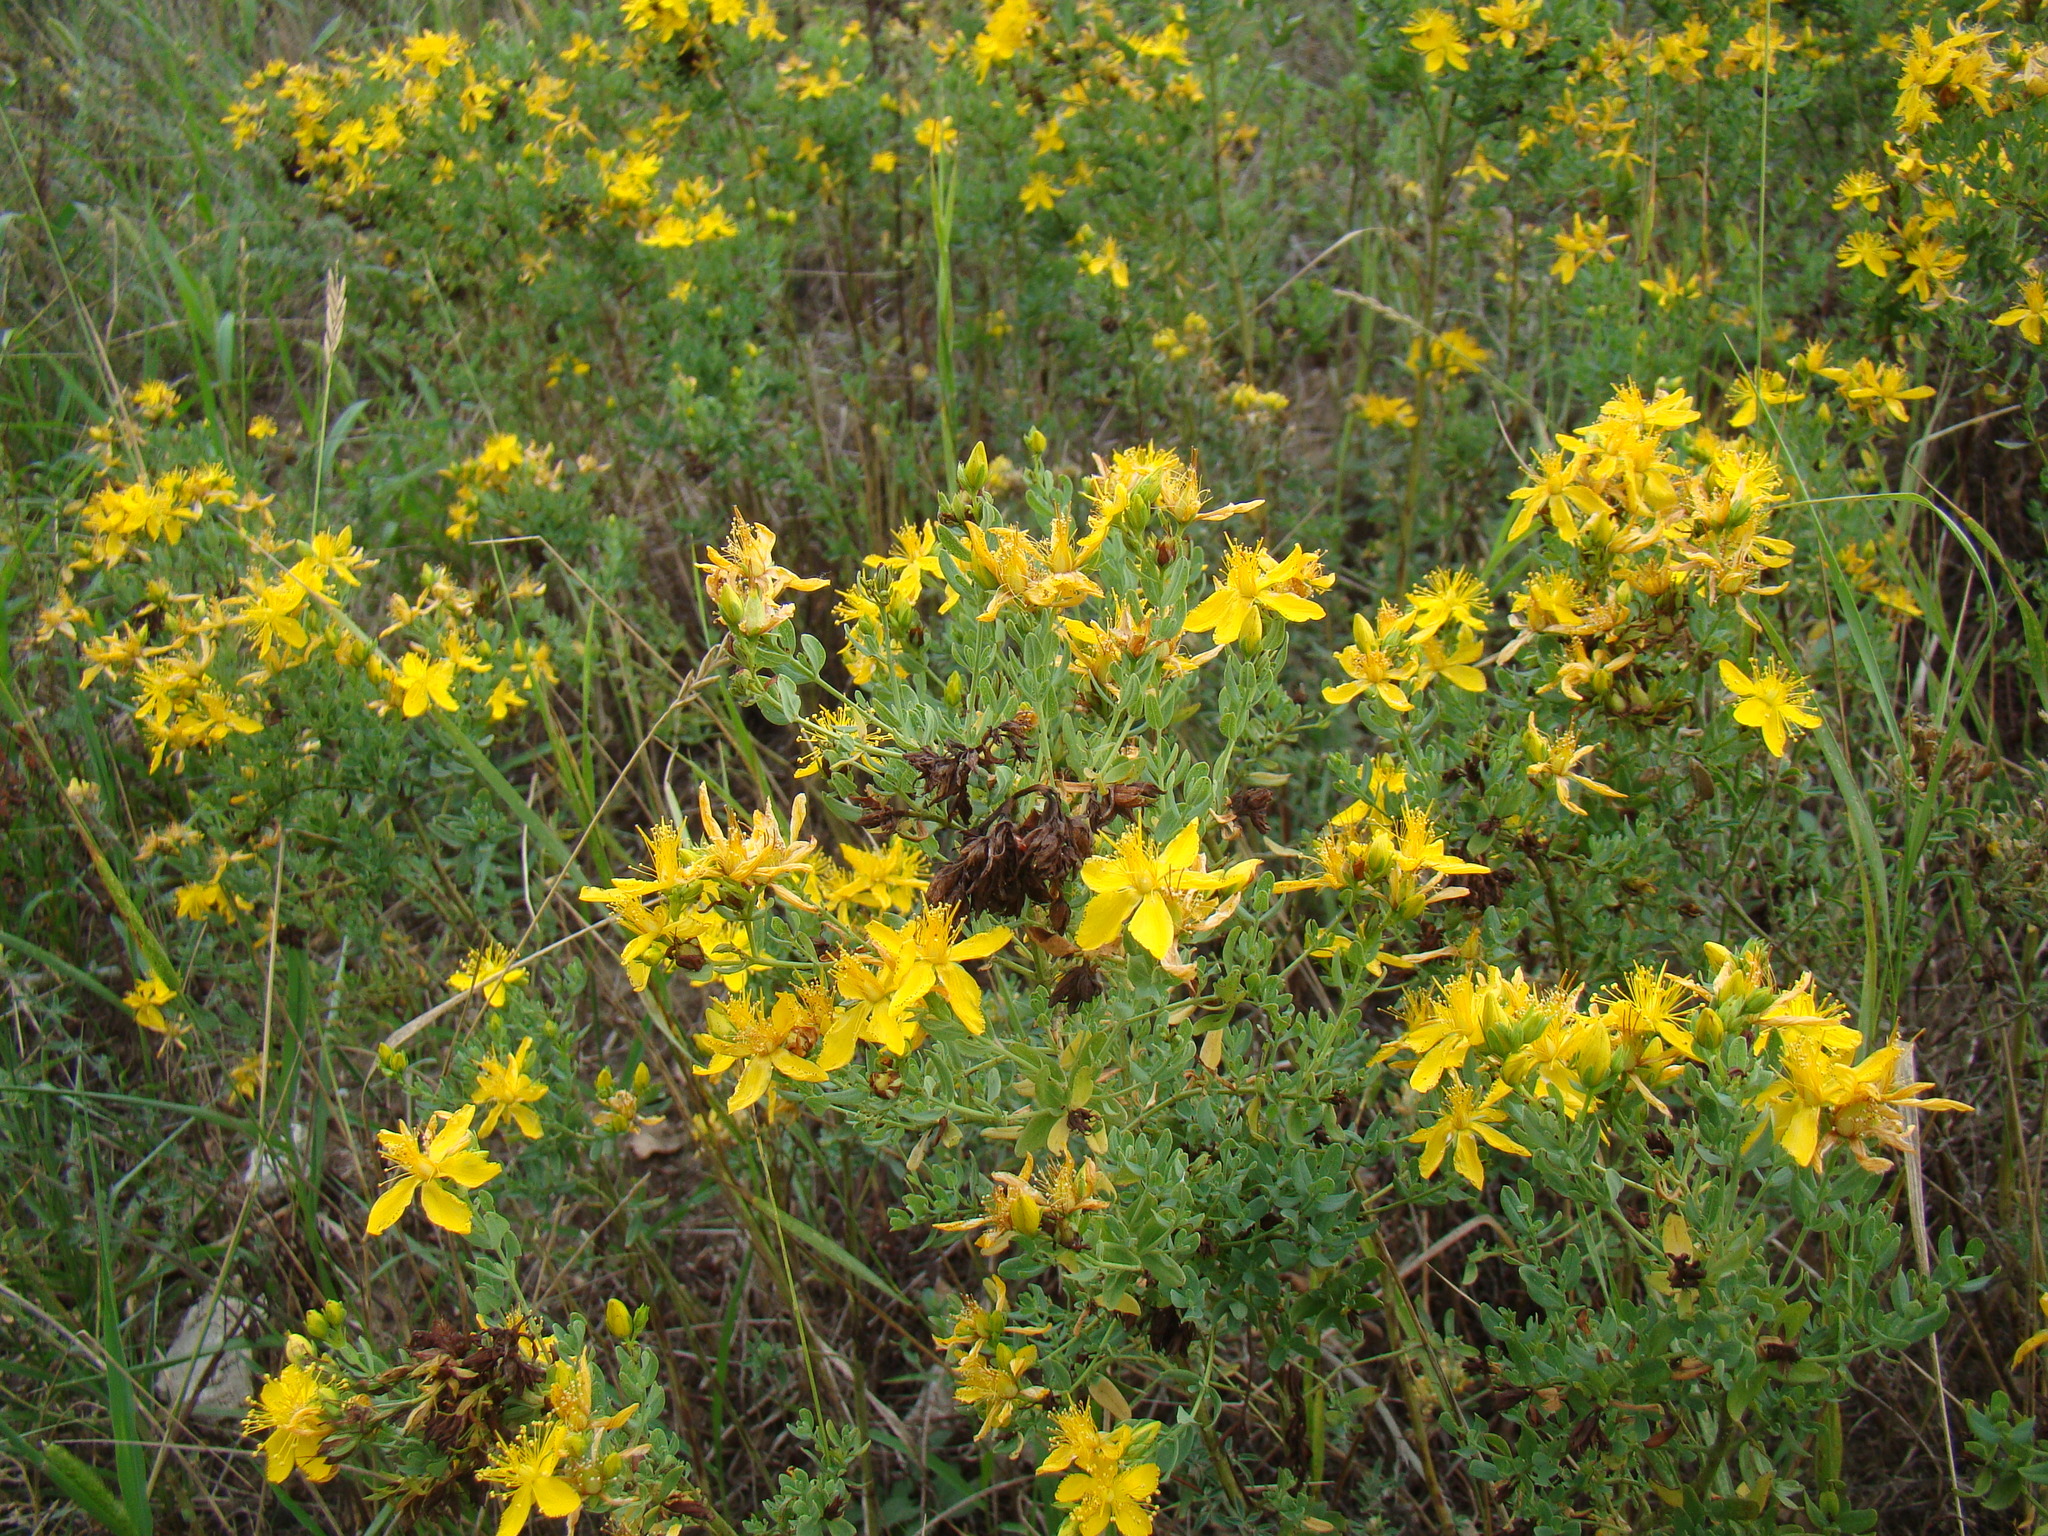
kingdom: Plantae
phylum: Tracheophyta
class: Magnoliopsida
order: Malpighiales
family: Hypericaceae
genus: Hypericum
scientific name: Hypericum perforatum
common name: Common st. johnswort
